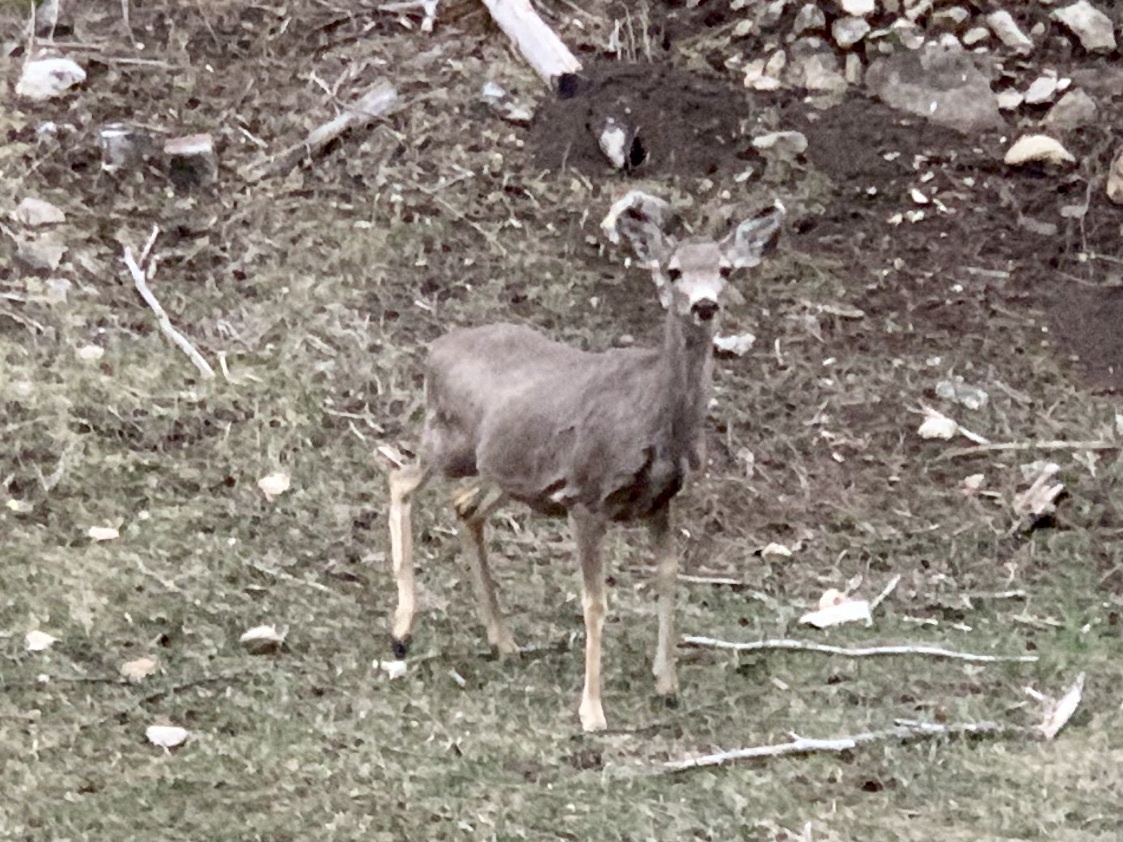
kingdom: Animalia
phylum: Chordata
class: Mammalia
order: Artiodactyla
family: Cervidae
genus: Odocoileus
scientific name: Odocoileus hemionus
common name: Mule deer
